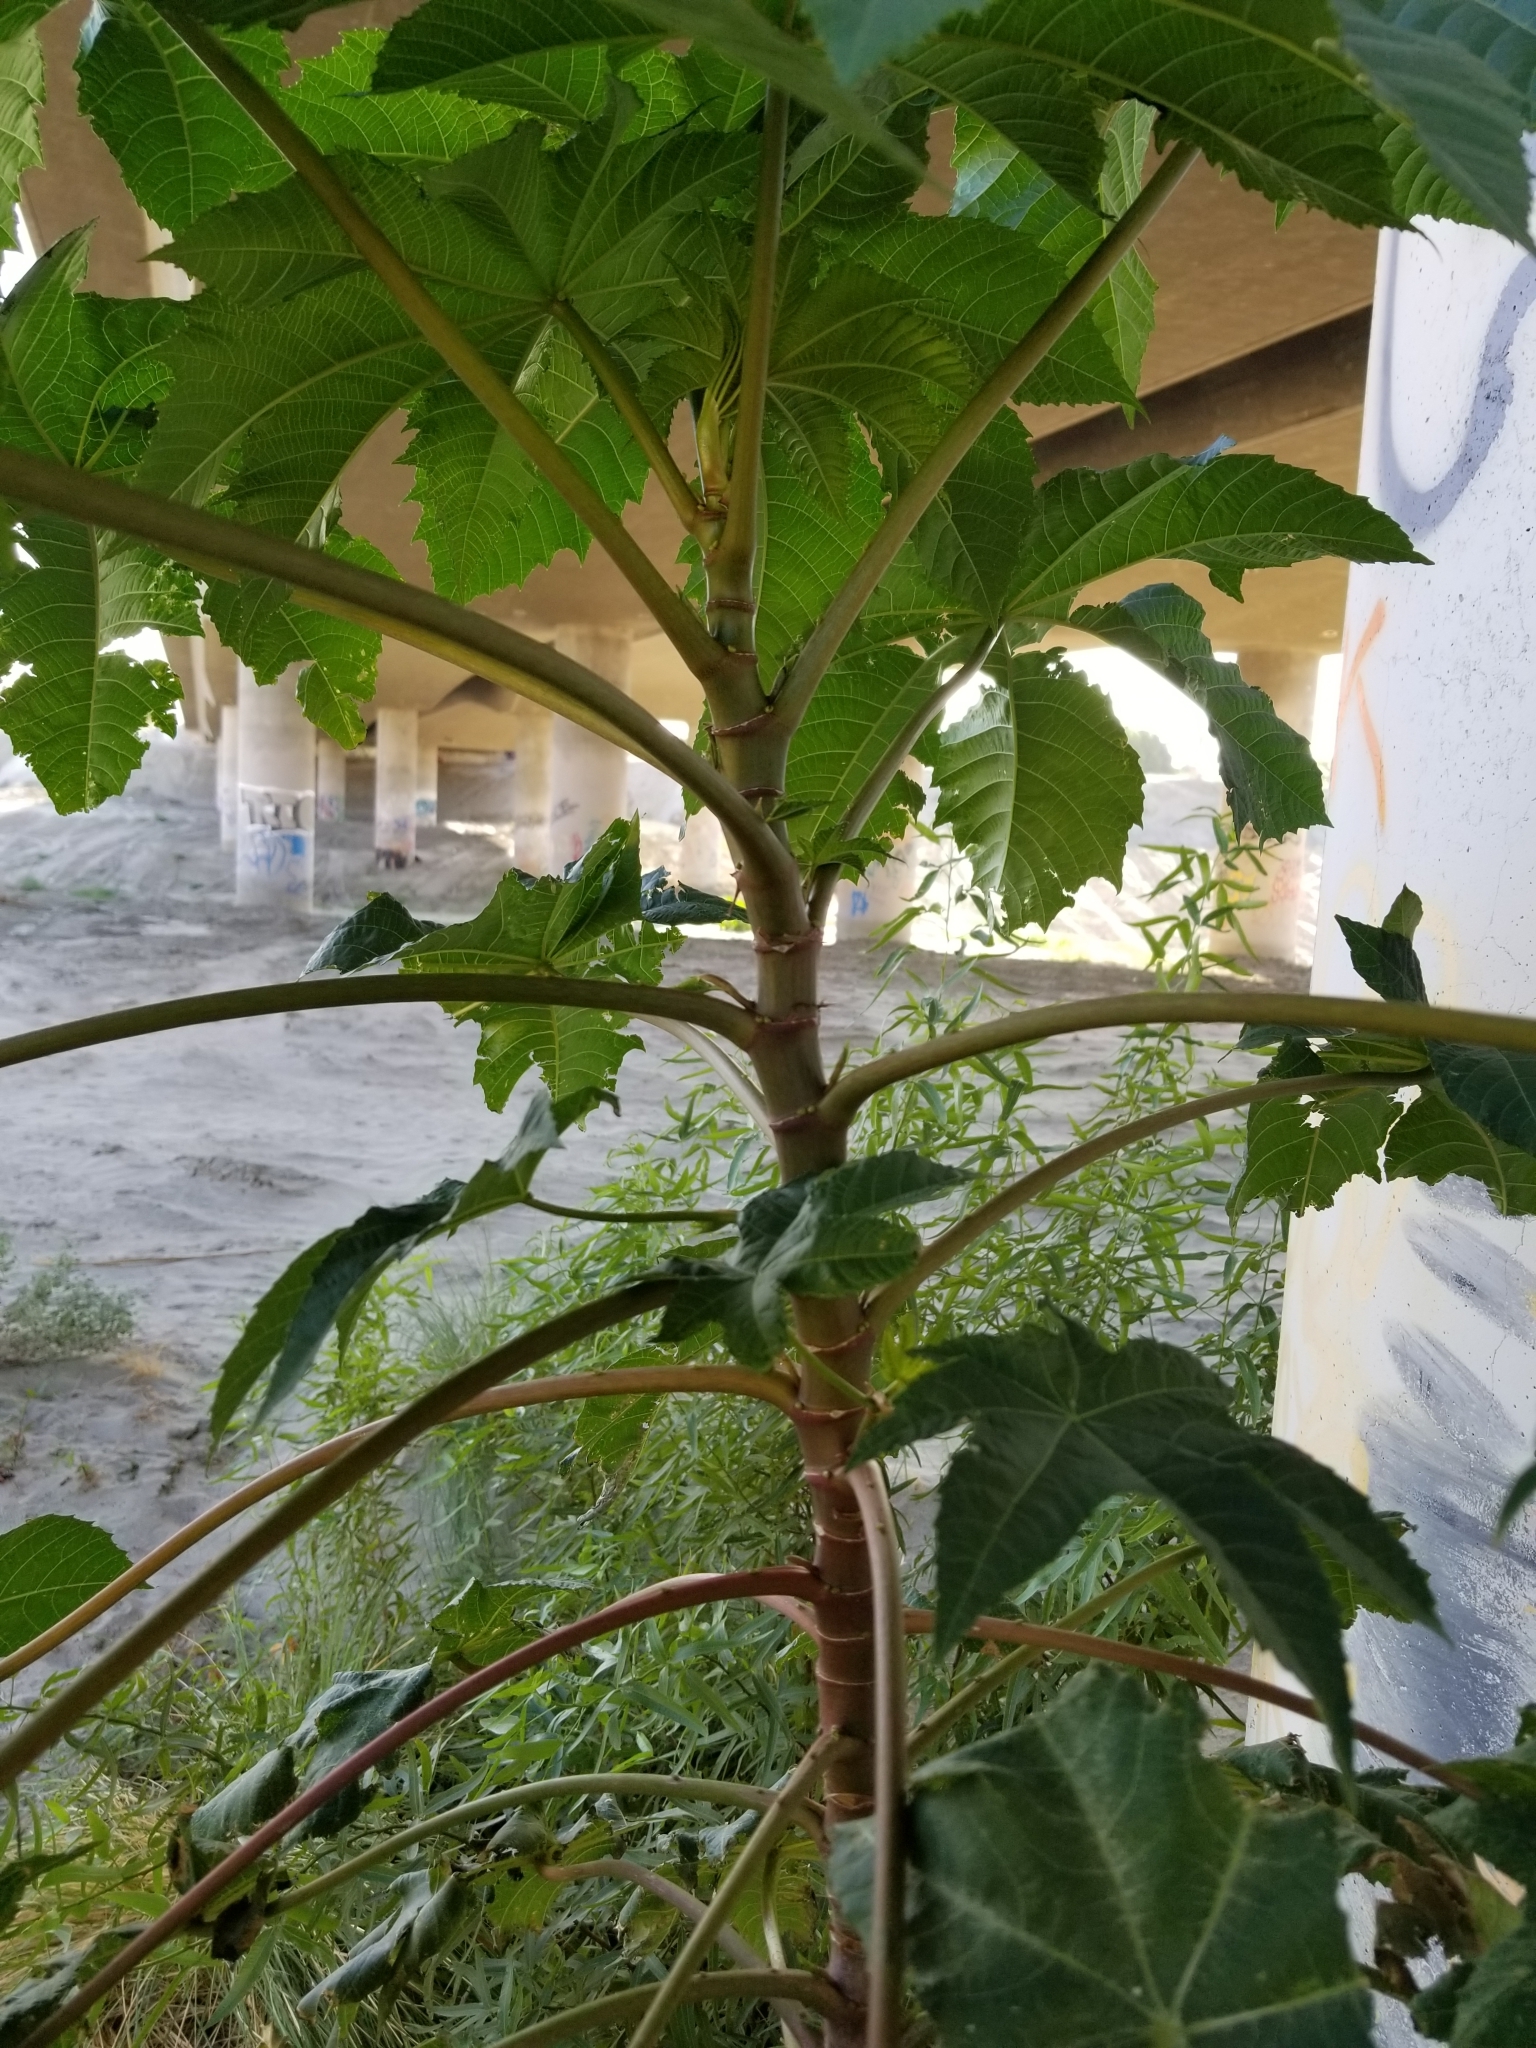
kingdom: Plantae
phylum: Tracheophyta
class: Magnoliopsida
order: Malpighiales
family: Euphorbiaceae
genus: Ricinus
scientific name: Ricinus communis
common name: Castor-oil-plant
